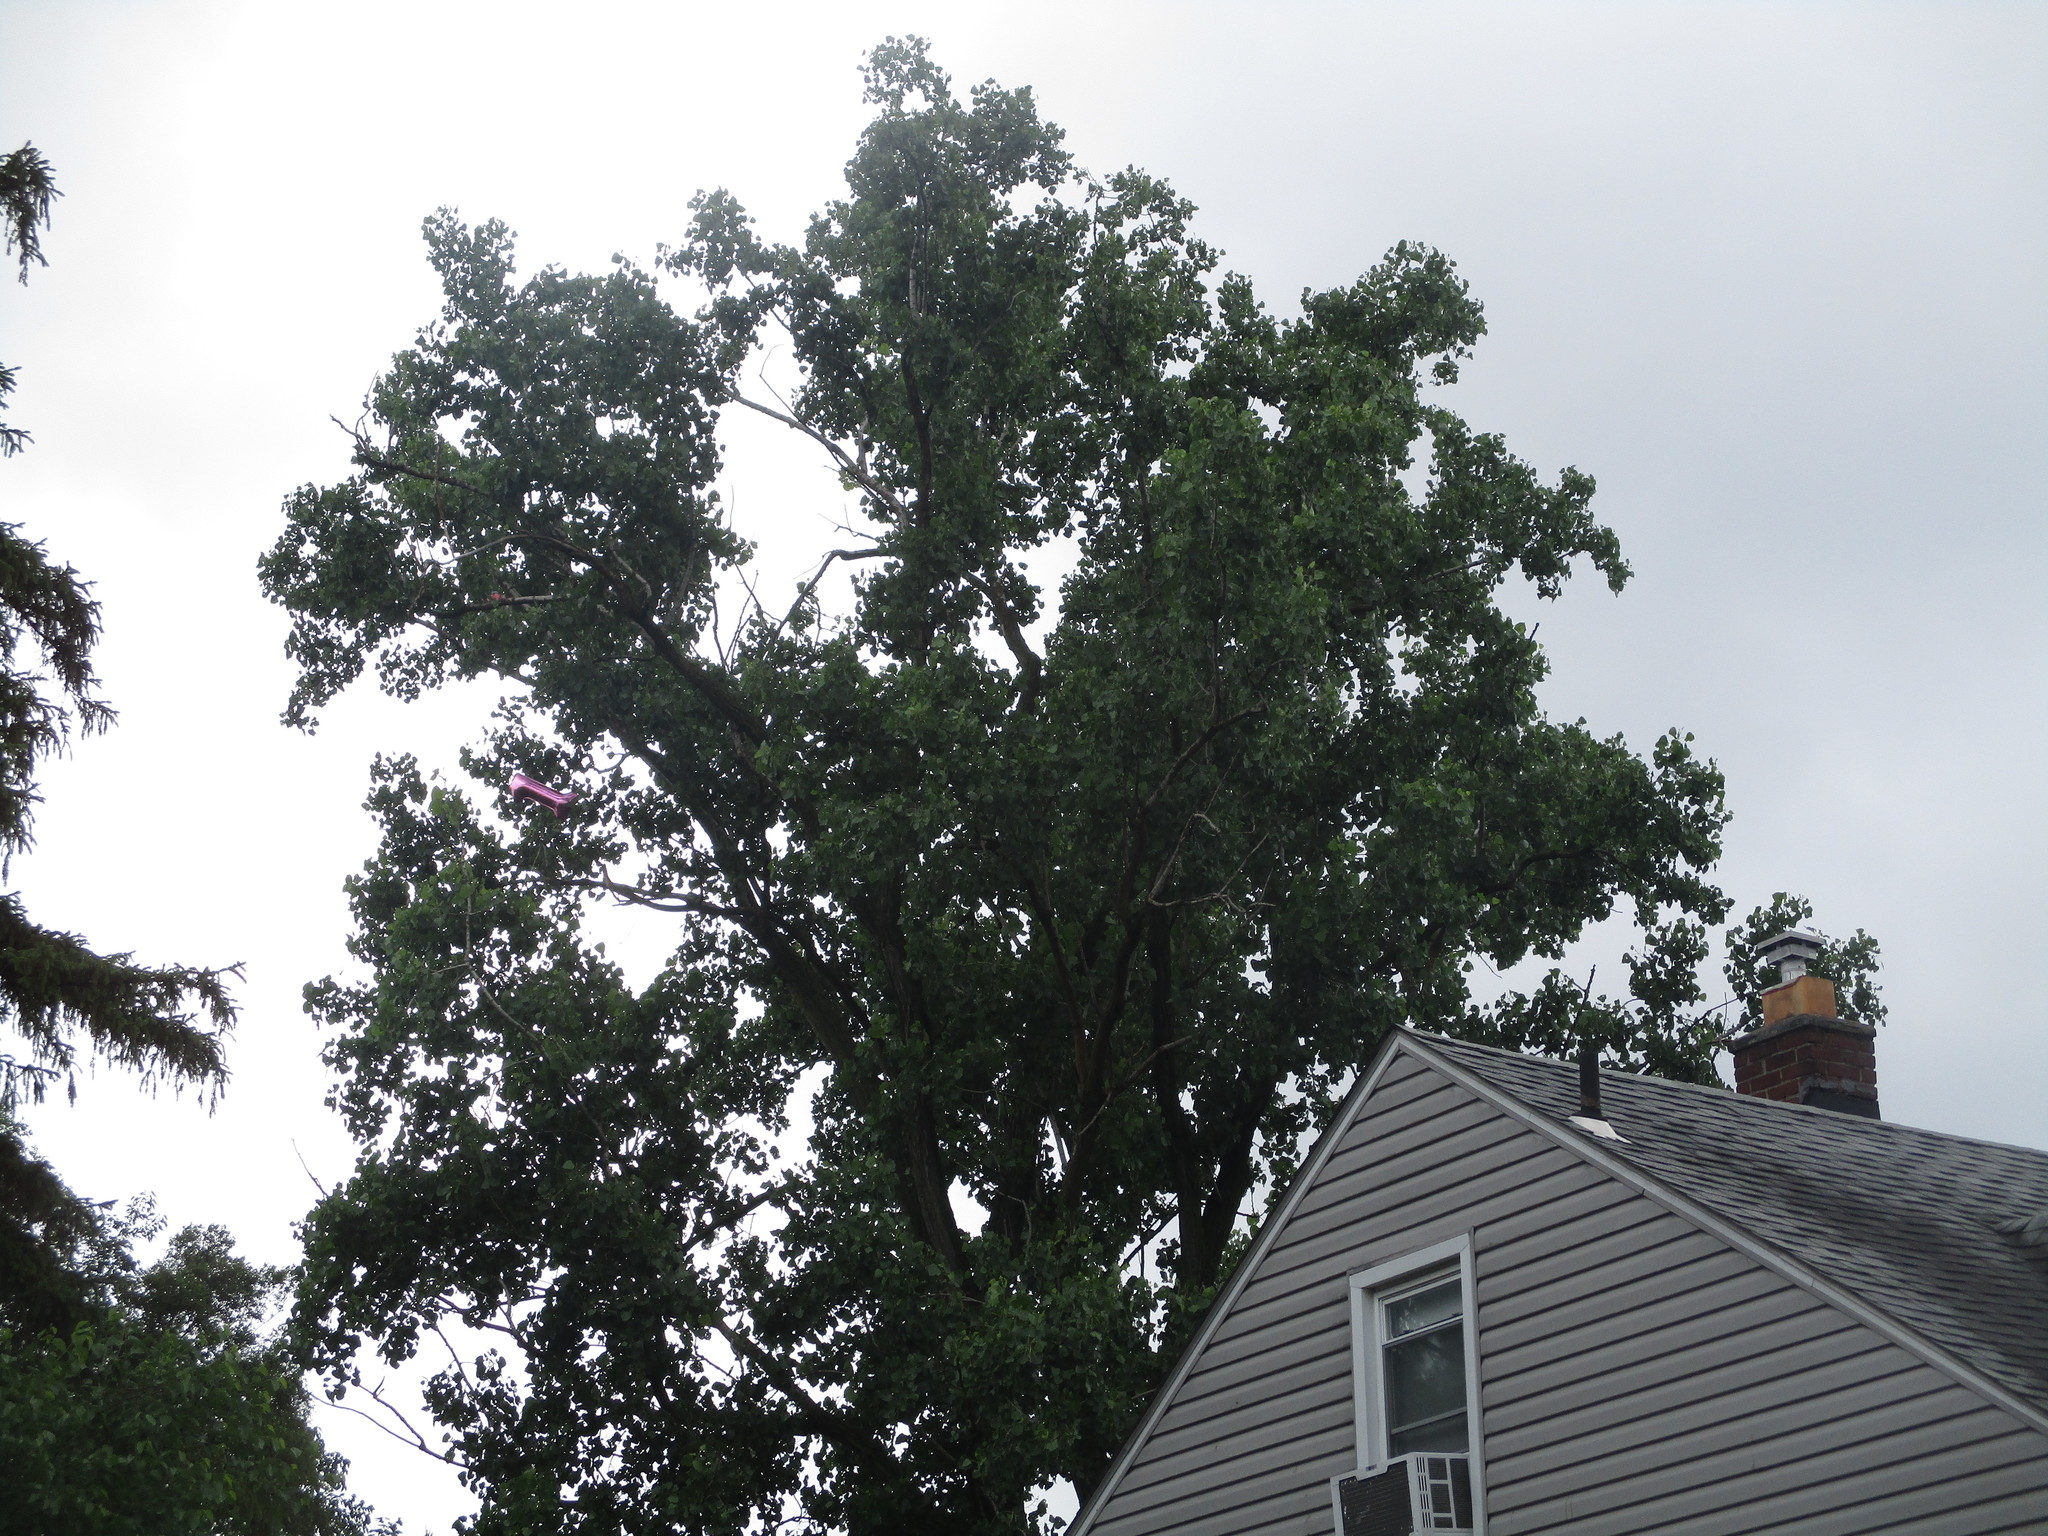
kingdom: Plantae
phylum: Tracheophyta
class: Magnoliopsida
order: Malpighiales
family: Salicaceae
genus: Populus
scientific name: Populus deltoides
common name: Eastern cottonwood
